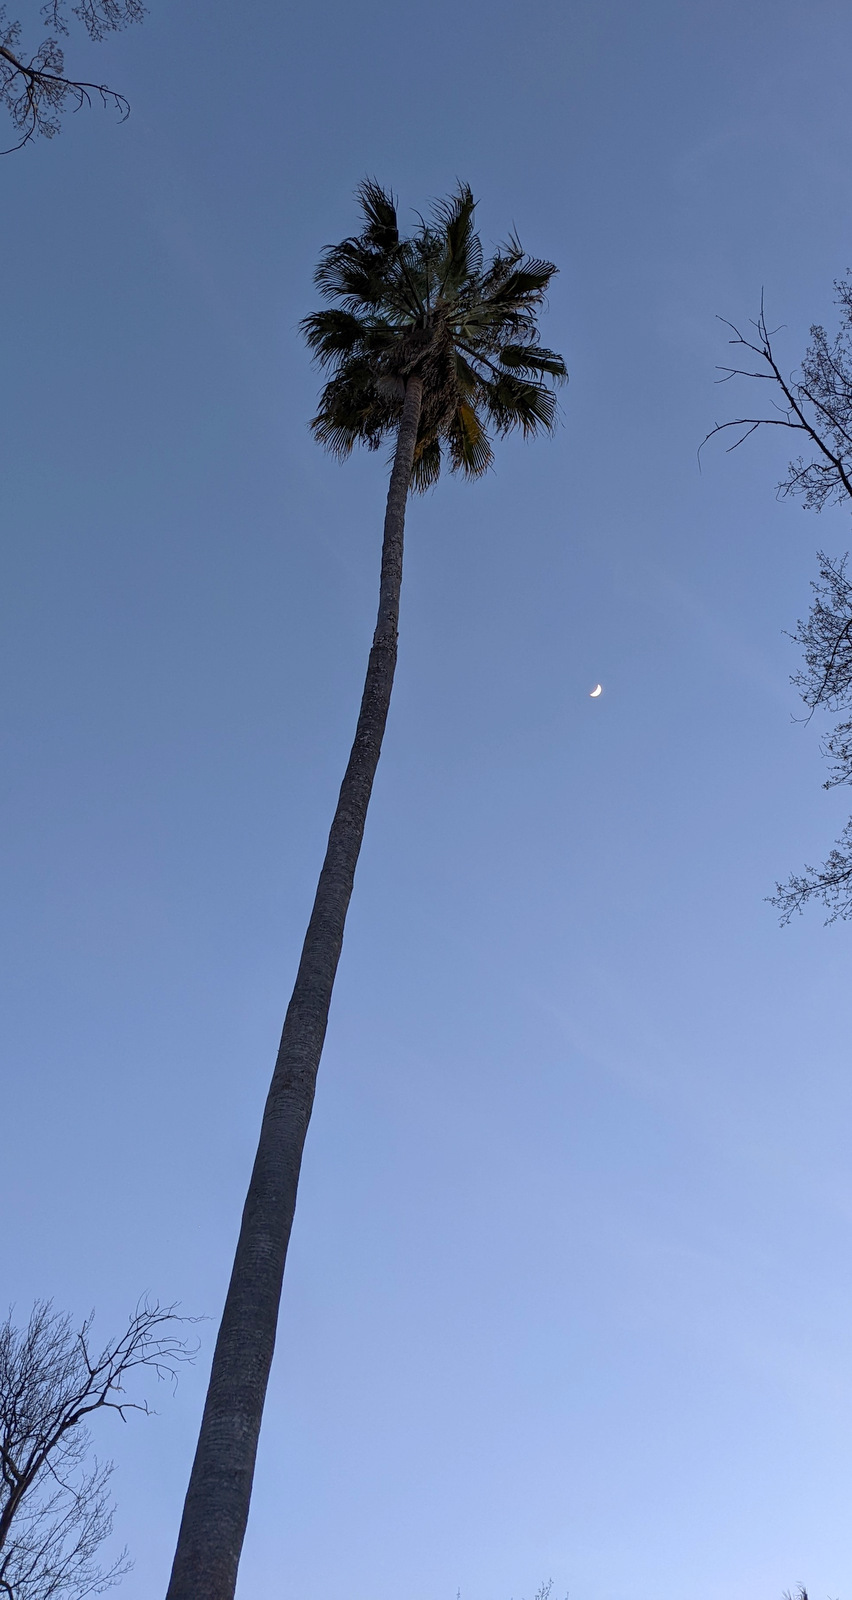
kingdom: Plantae
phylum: Tracheophyta
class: Liliopsida
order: Arecales
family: Arecaceae
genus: Washingtonia
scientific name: Washingtonia robusta
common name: Mexican fan palm
